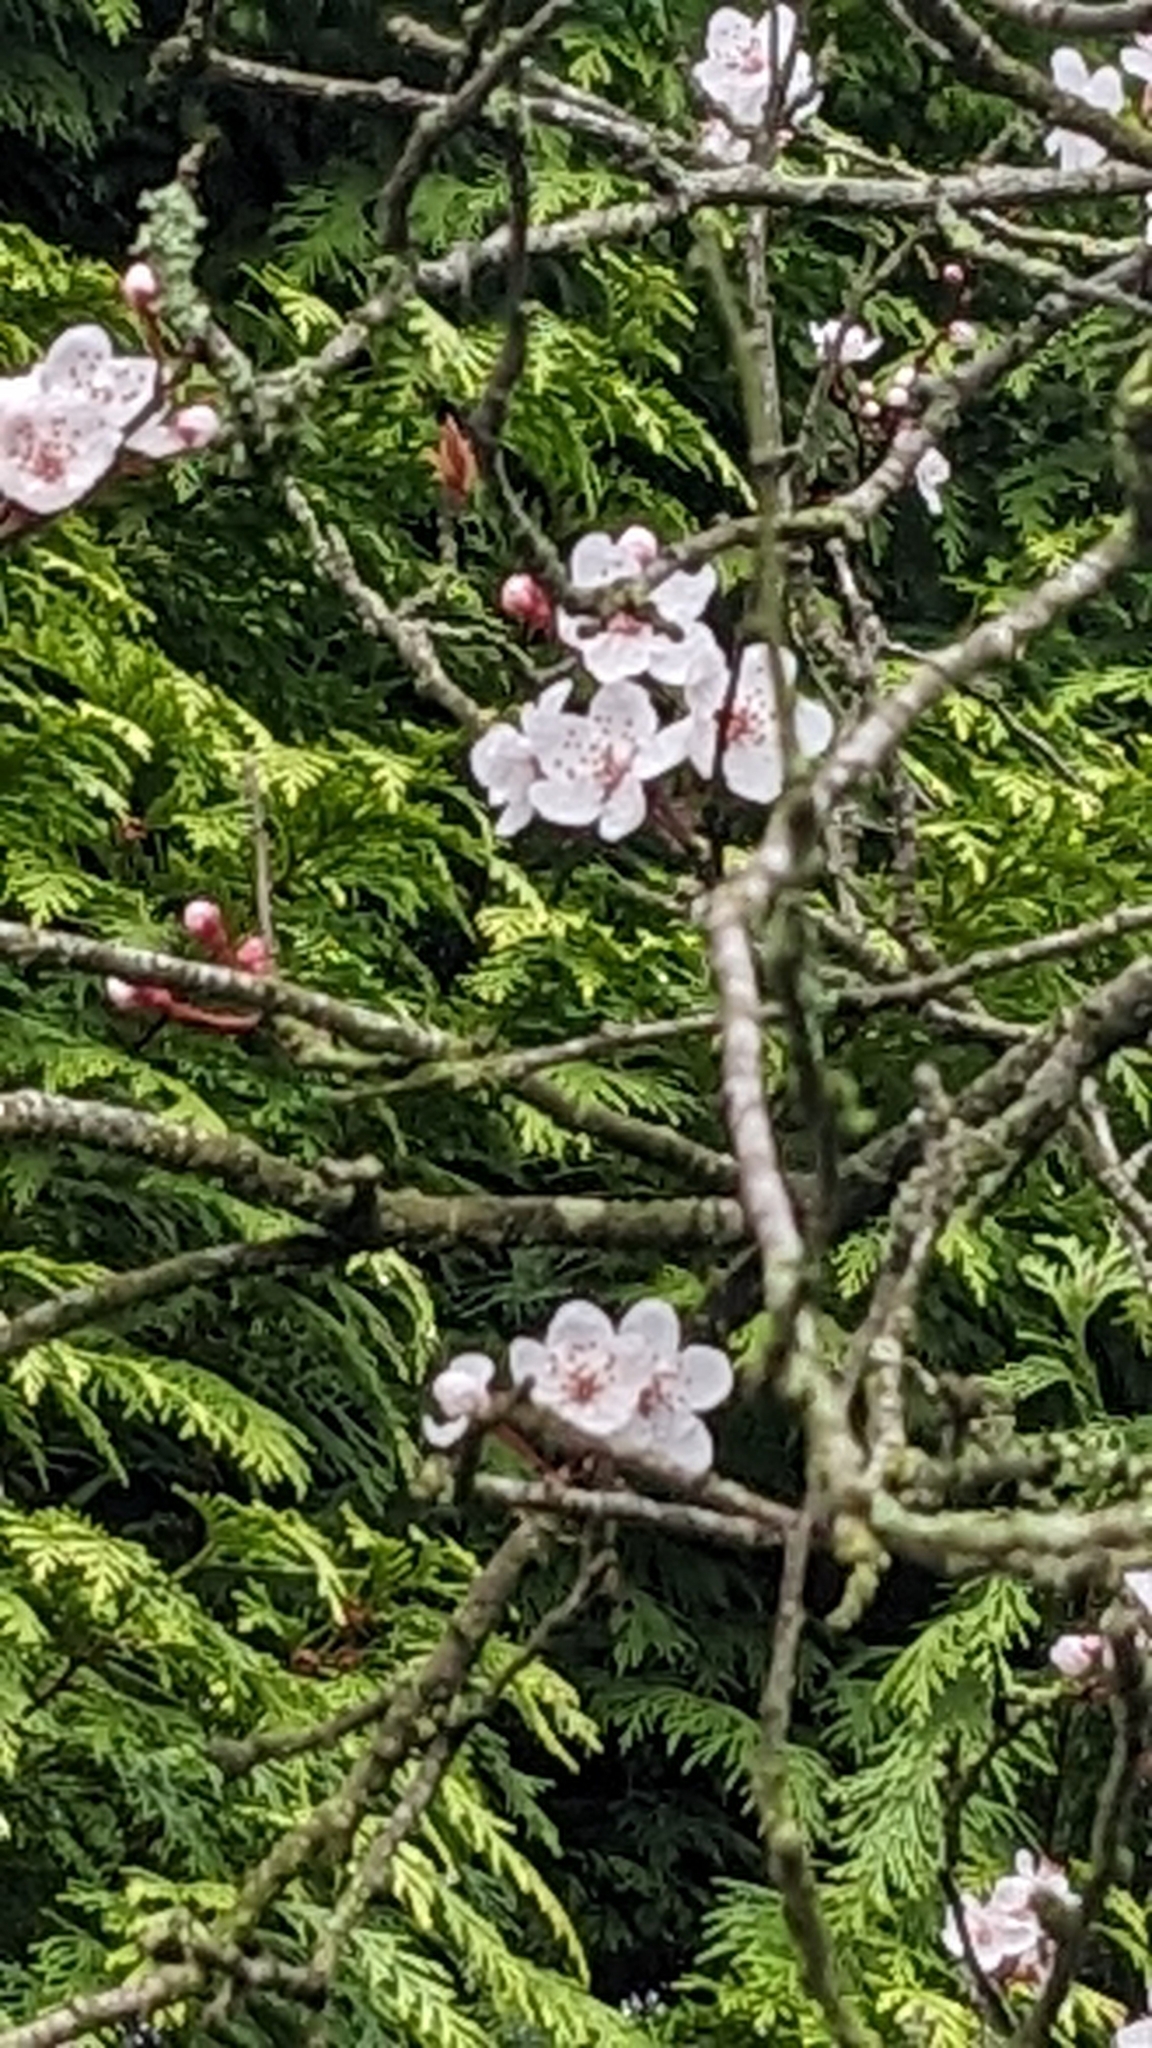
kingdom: Plantae
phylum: Tracheophyta
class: Magnoliopsida
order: Rosales
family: Rosaceae
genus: Prunus
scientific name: Prunus cerasifera
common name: Cherry plum
